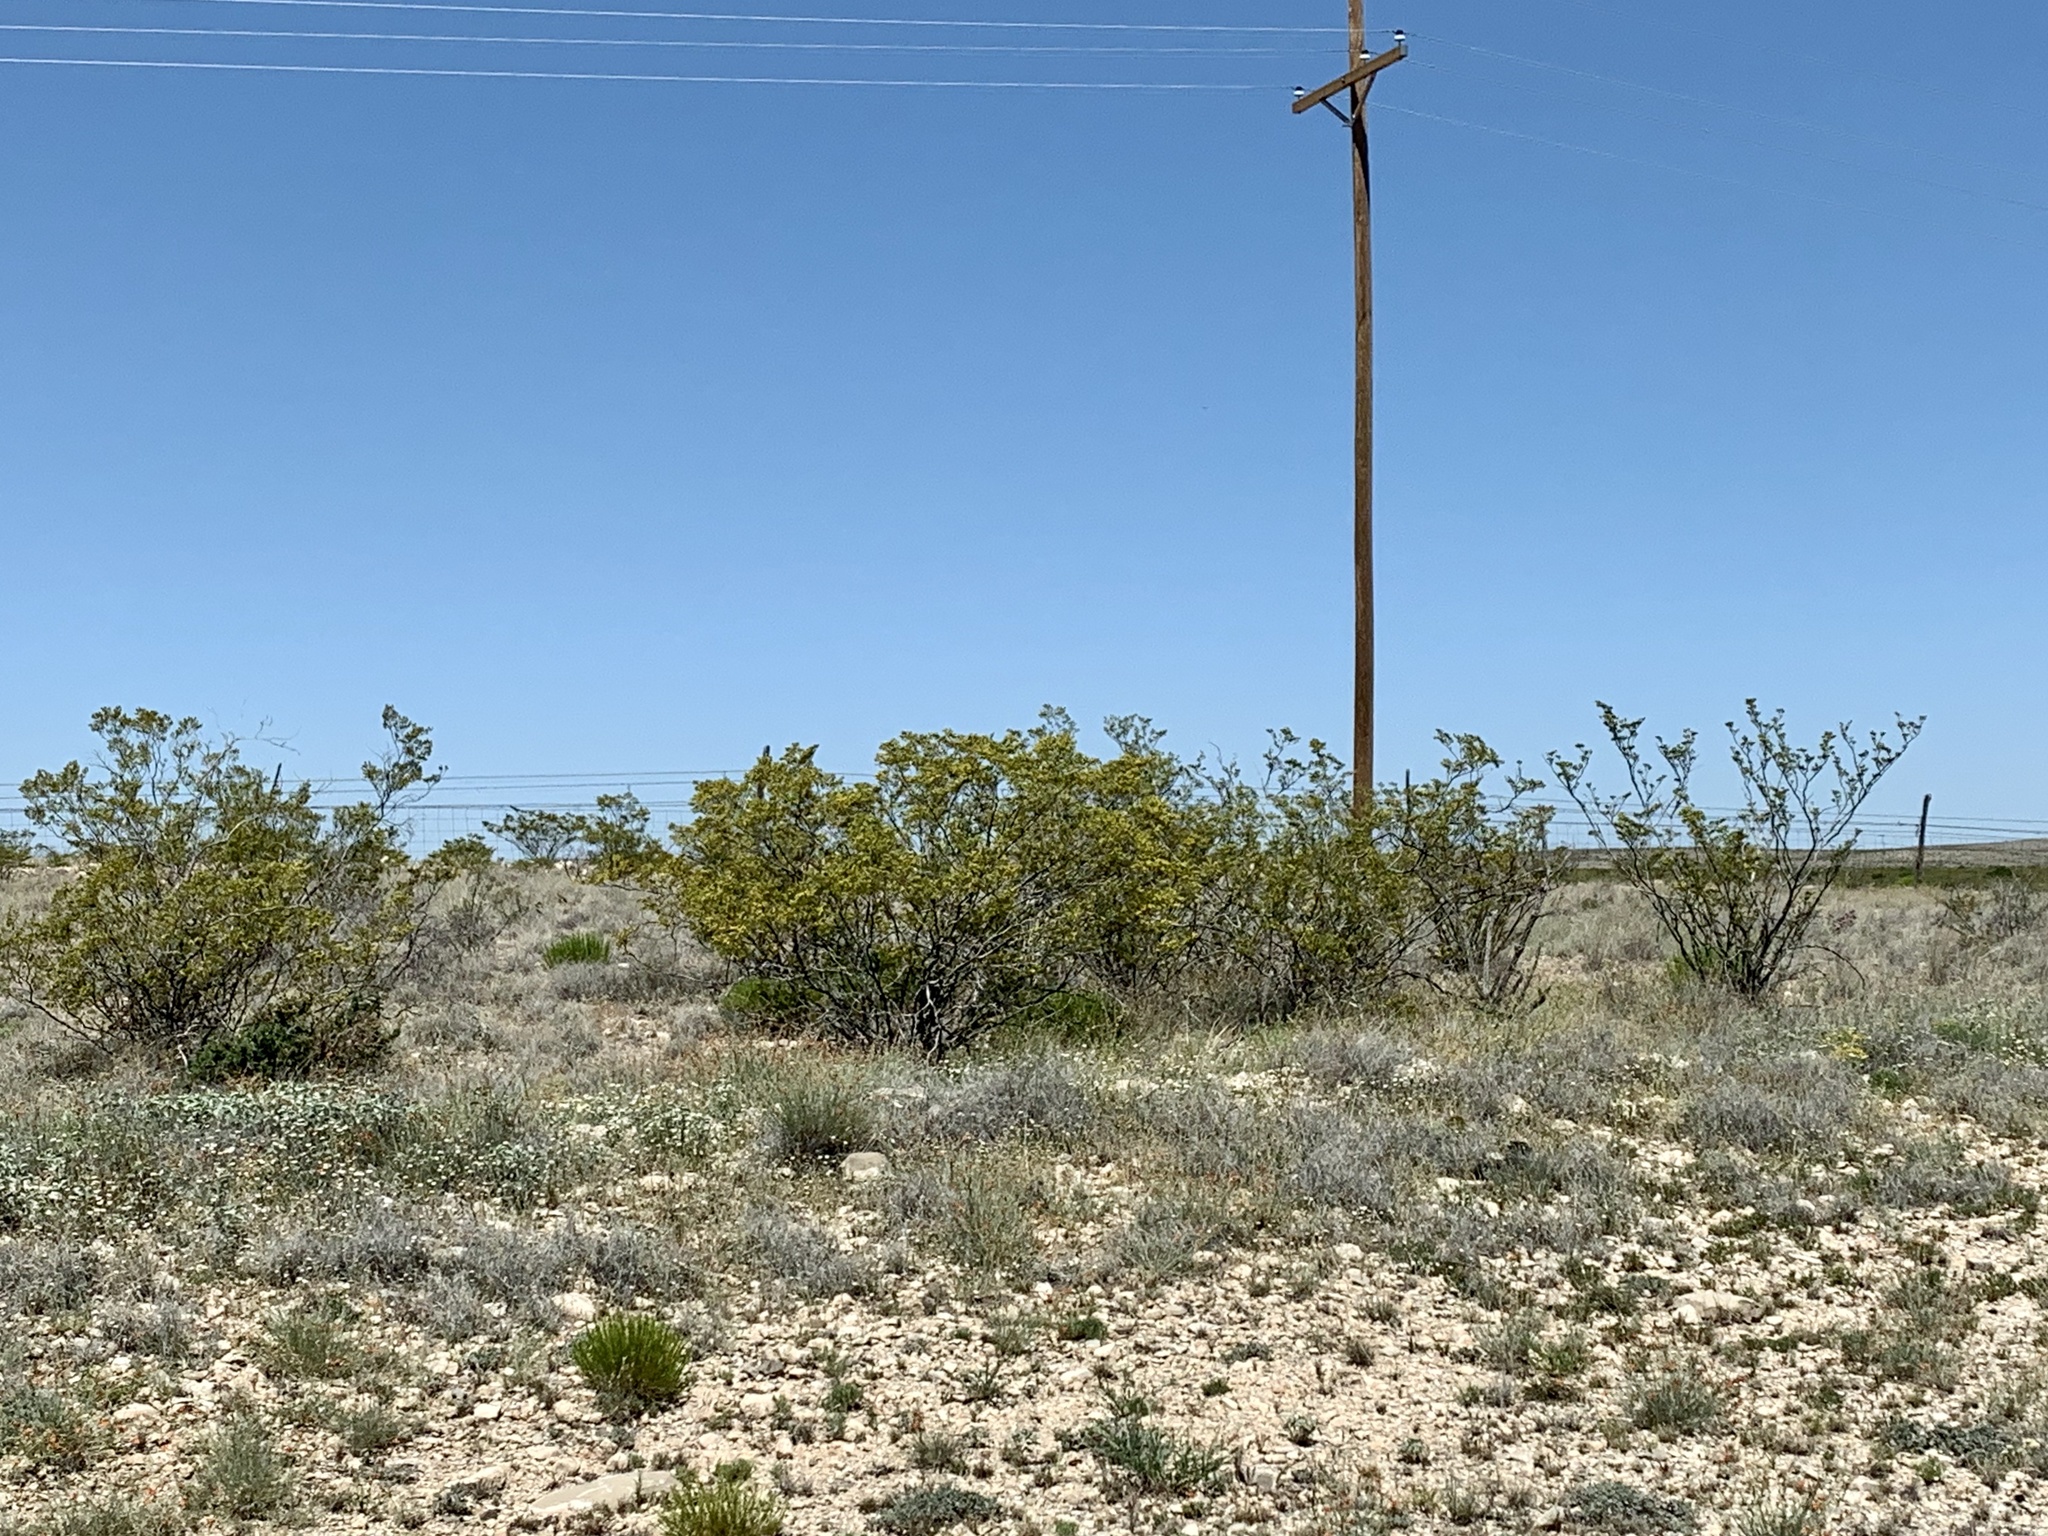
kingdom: Plantae
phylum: Tracheophyta
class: Magnoliopsida
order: Zygophyllales
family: Zygophyllaceae
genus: Larrea
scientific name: Larrea tridentata
